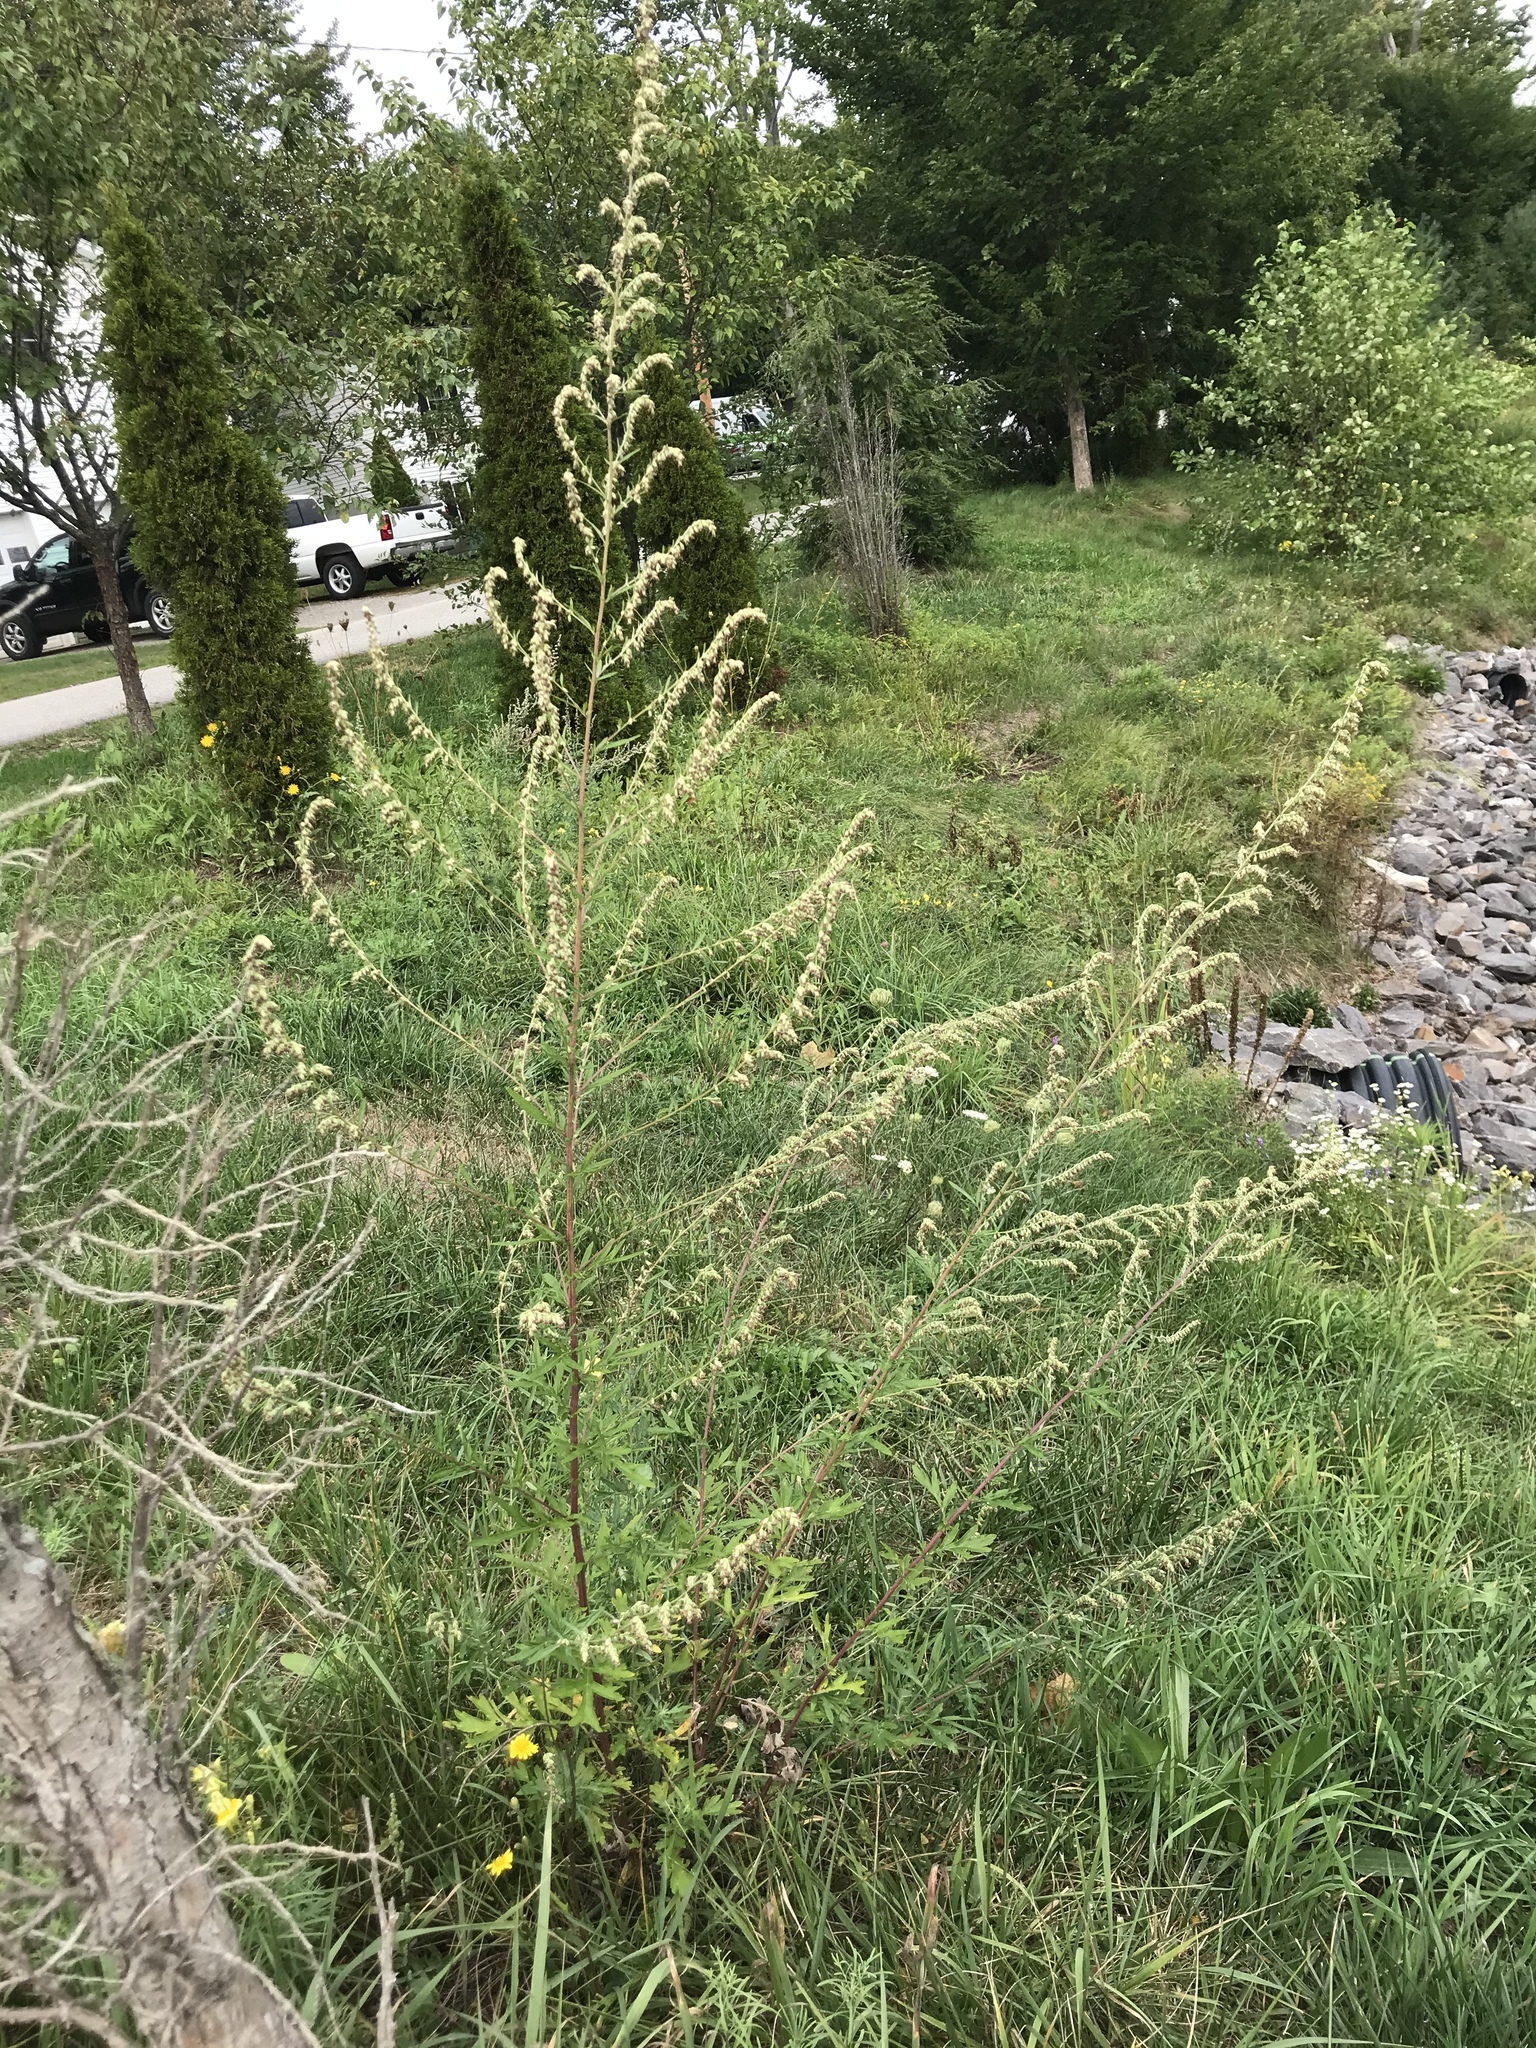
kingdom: Plantae
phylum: Tracheophyta
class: Magnoliopsida
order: Asterales
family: Asteraceae
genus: Artemisia
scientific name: Artemisia vulgaris
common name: Mugwort
